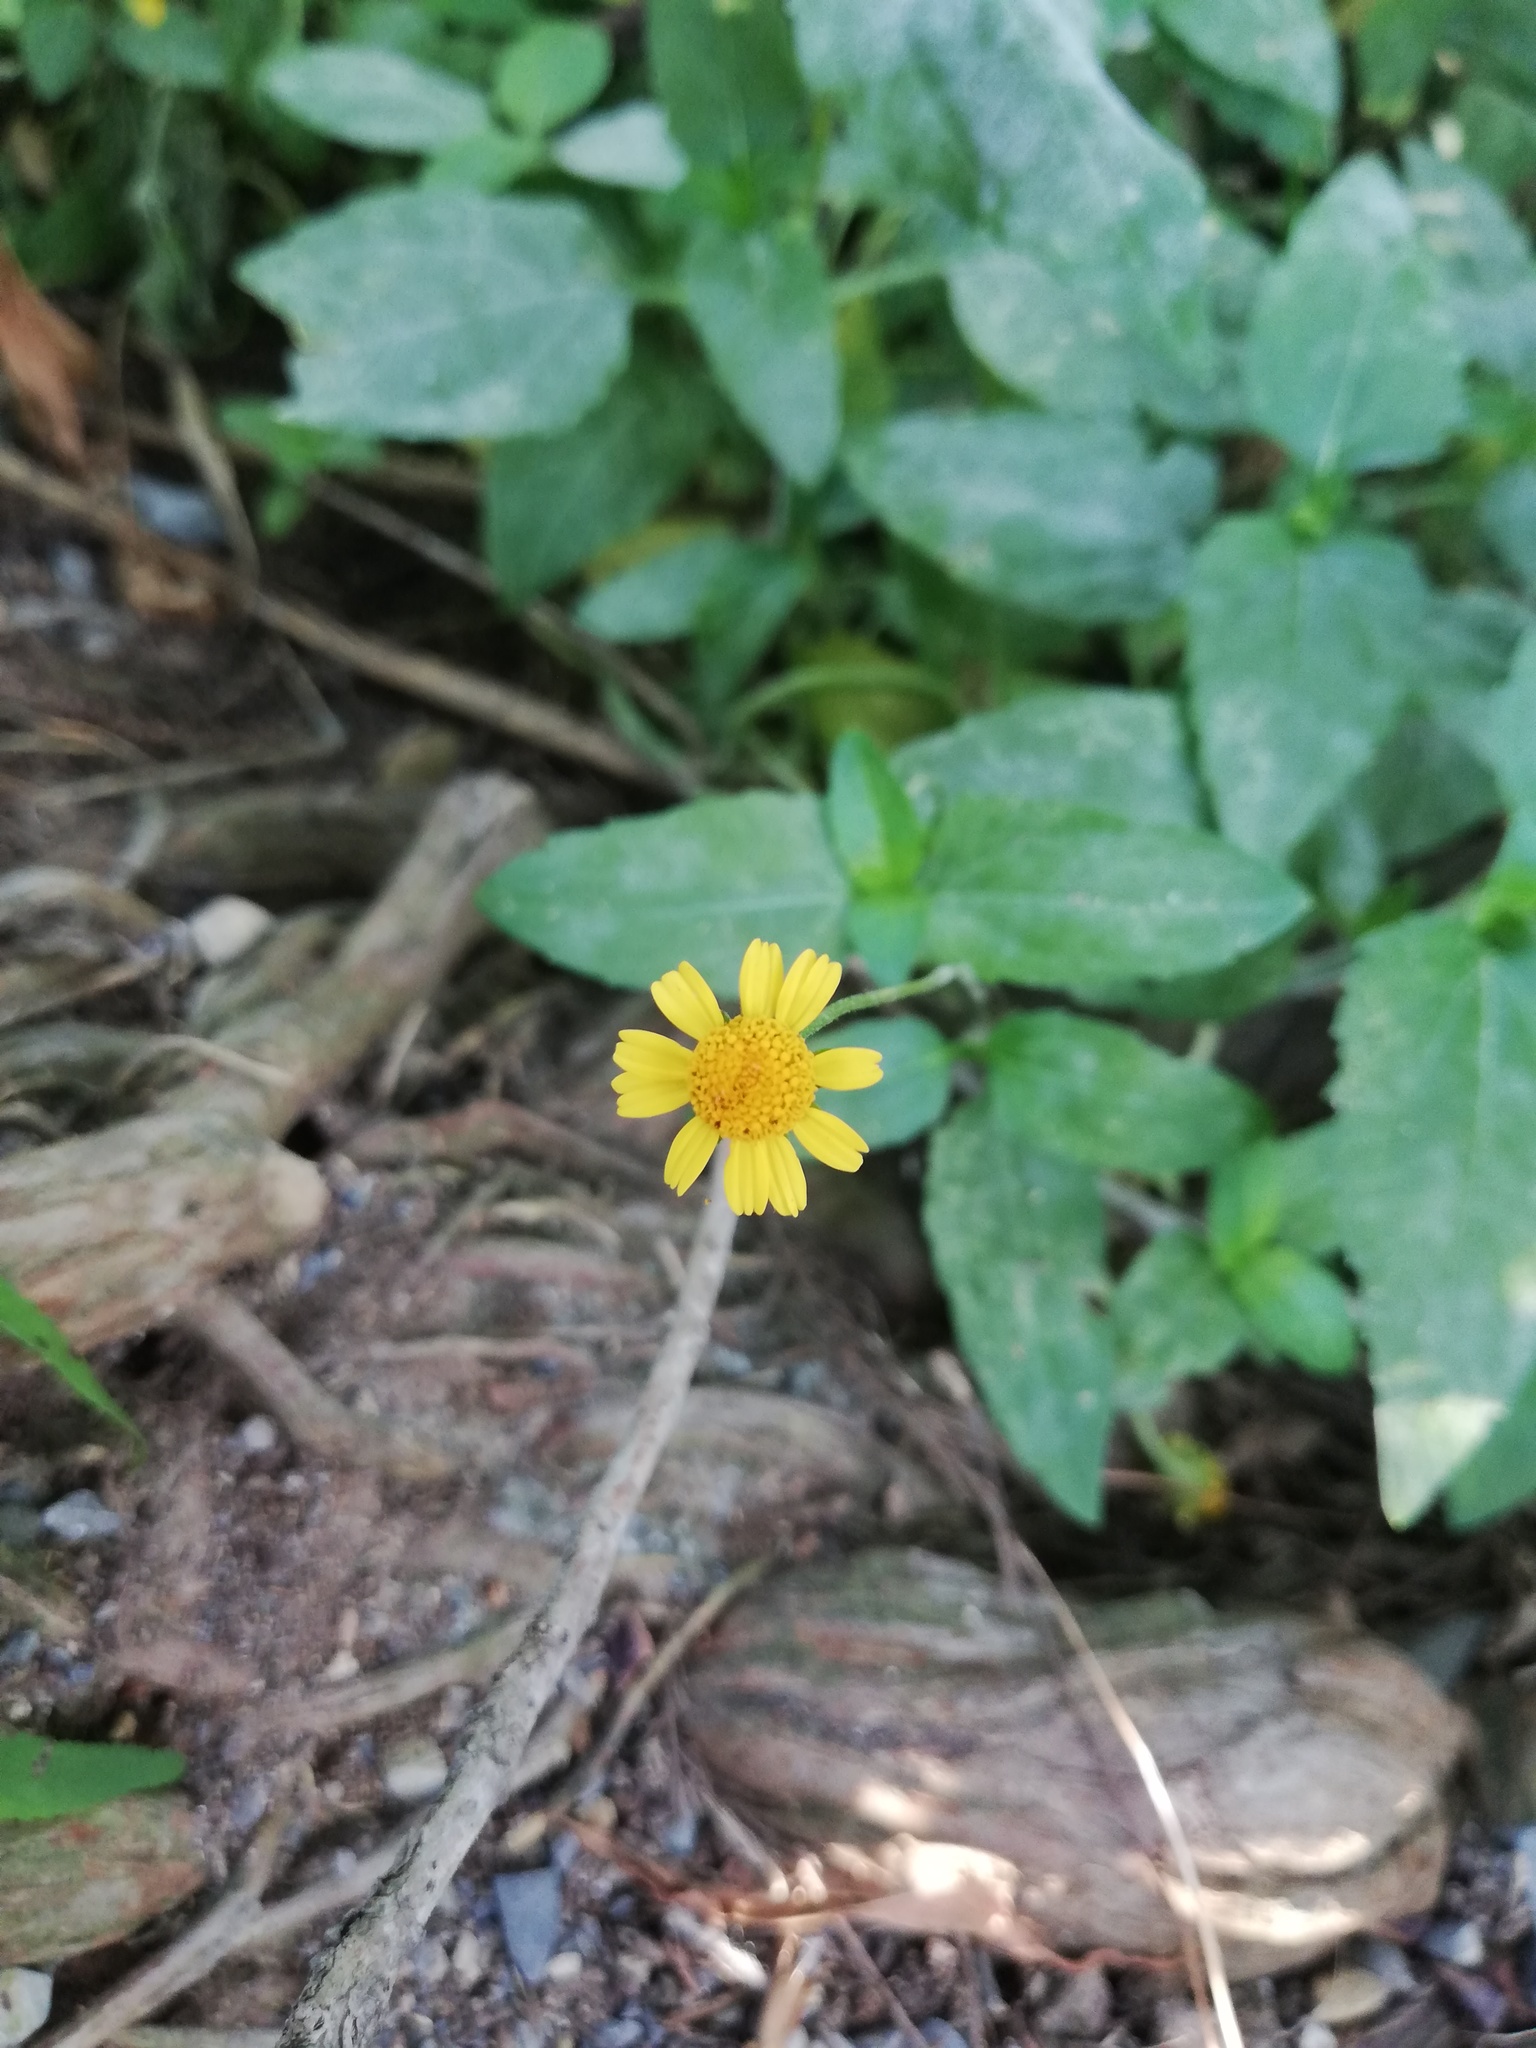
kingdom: Plantae
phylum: Tracheophyta
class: Magnoliopsida
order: Asterales
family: Asteraceae
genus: Acmella
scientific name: Acmella repens
